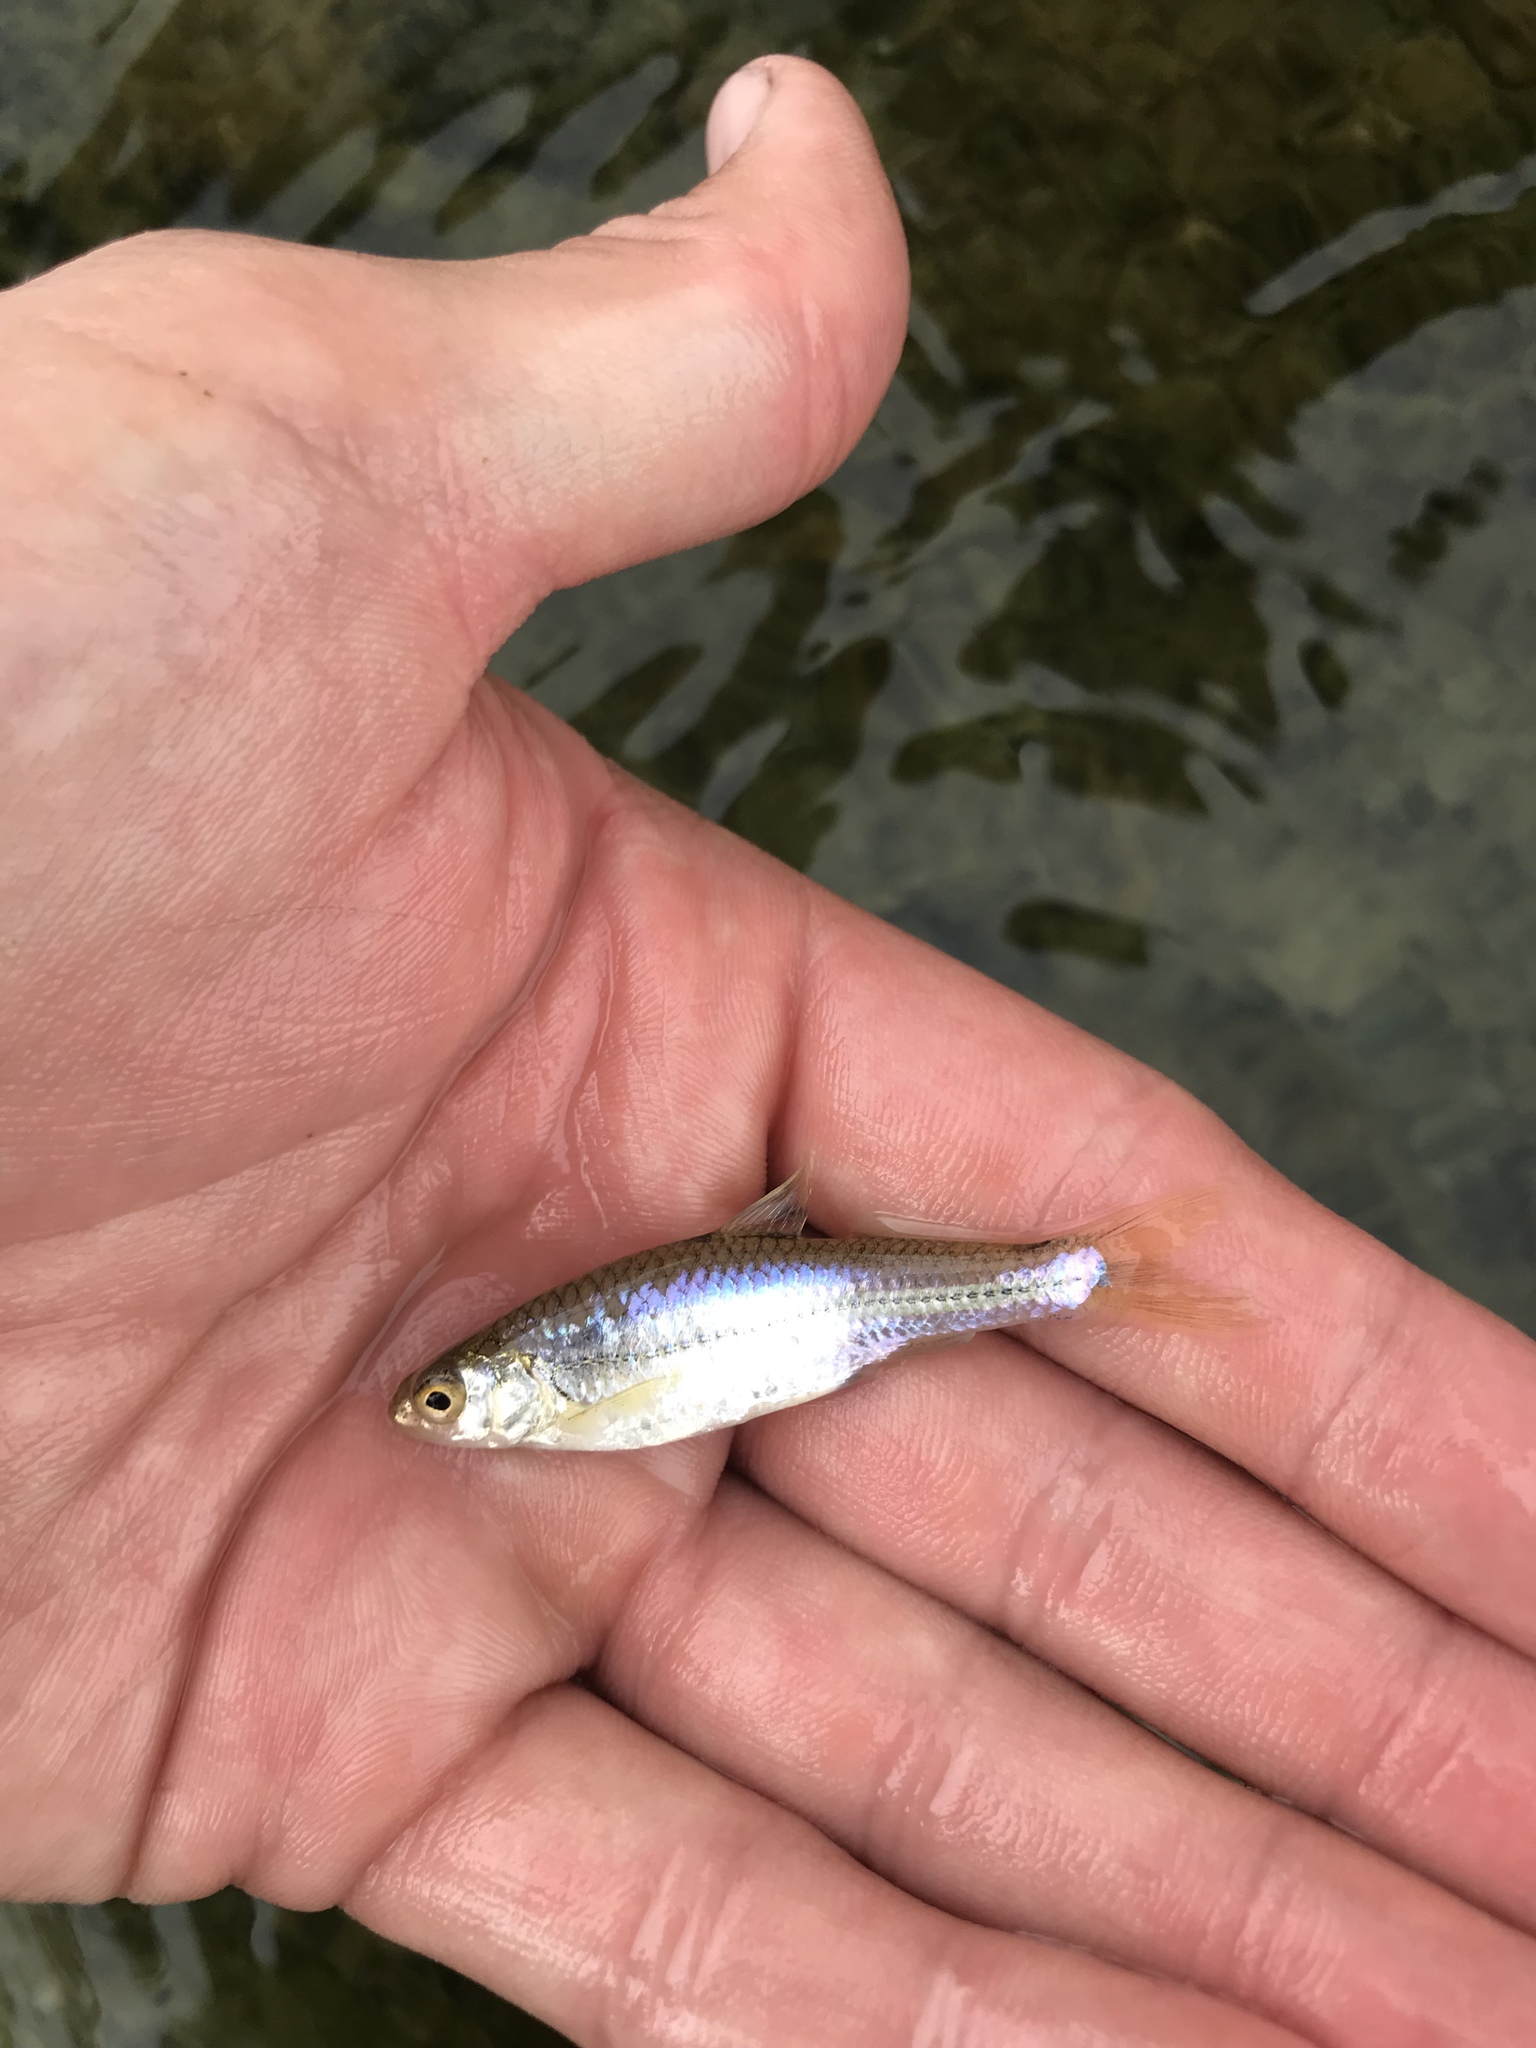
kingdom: Animalia
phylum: Chordata
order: Cypriniformes
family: Cyprinidae
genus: Notropis
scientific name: Notropis
